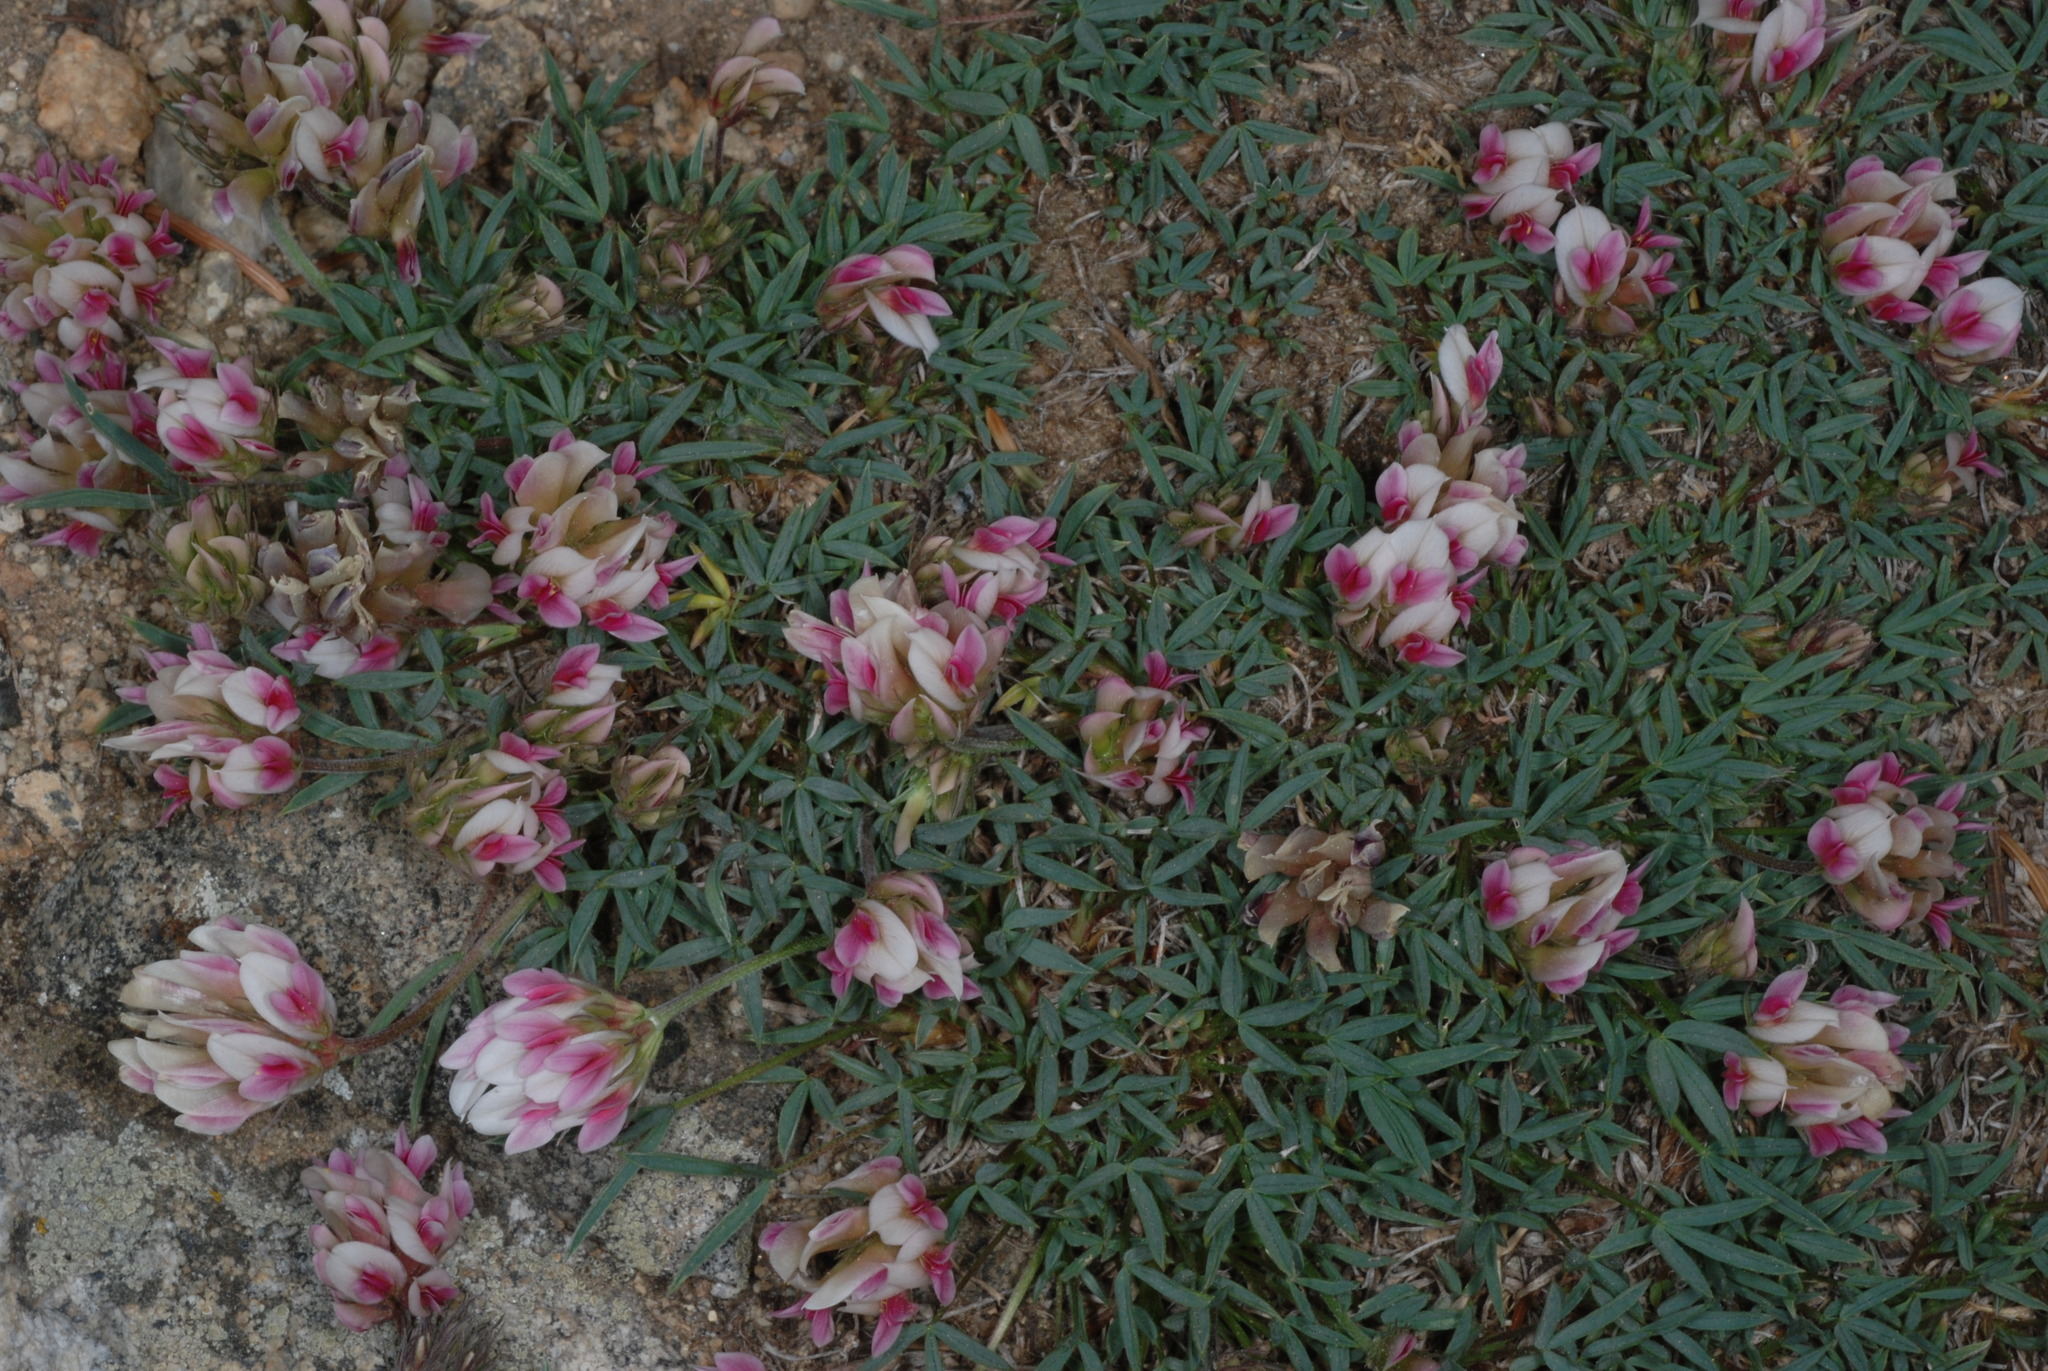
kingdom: Plantae
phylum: Tracheophyta
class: Magnoliopsida
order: Fabales
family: Fabaceae
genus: Trifolium
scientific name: Trifolium dasyphyllum
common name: Whip-root clover
